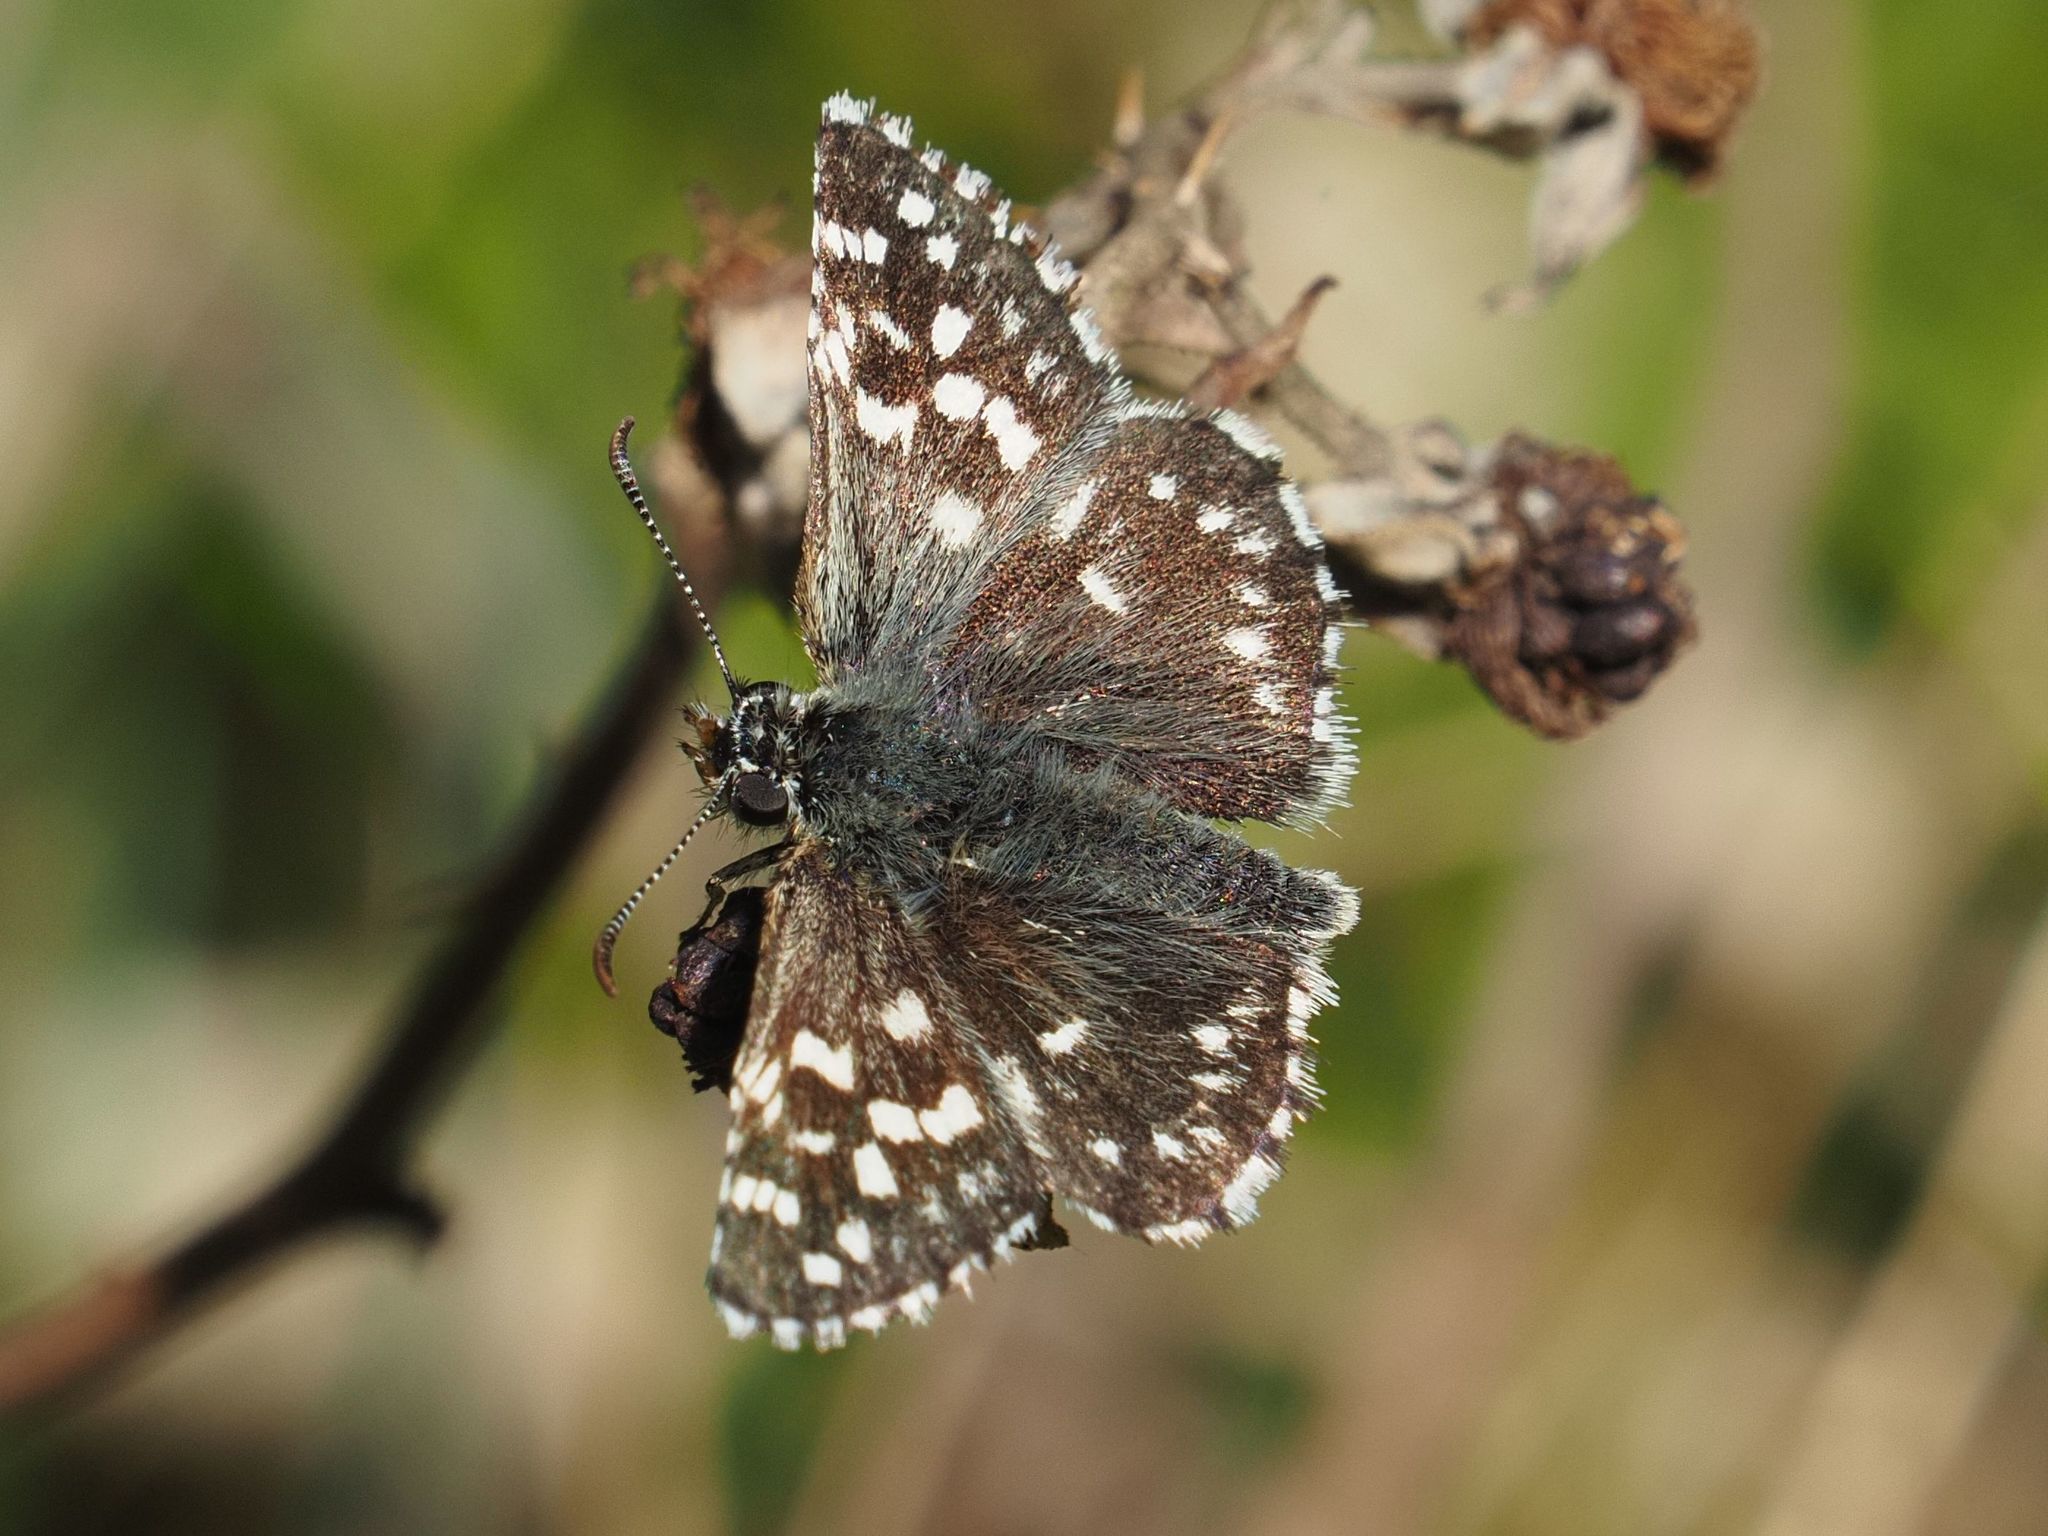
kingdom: Animalia
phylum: Arthropoda
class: Insecta
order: Lepidoptera
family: Hesperiidae
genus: Pyrgus
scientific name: Pyrgus malvae
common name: Grizzled skipper
